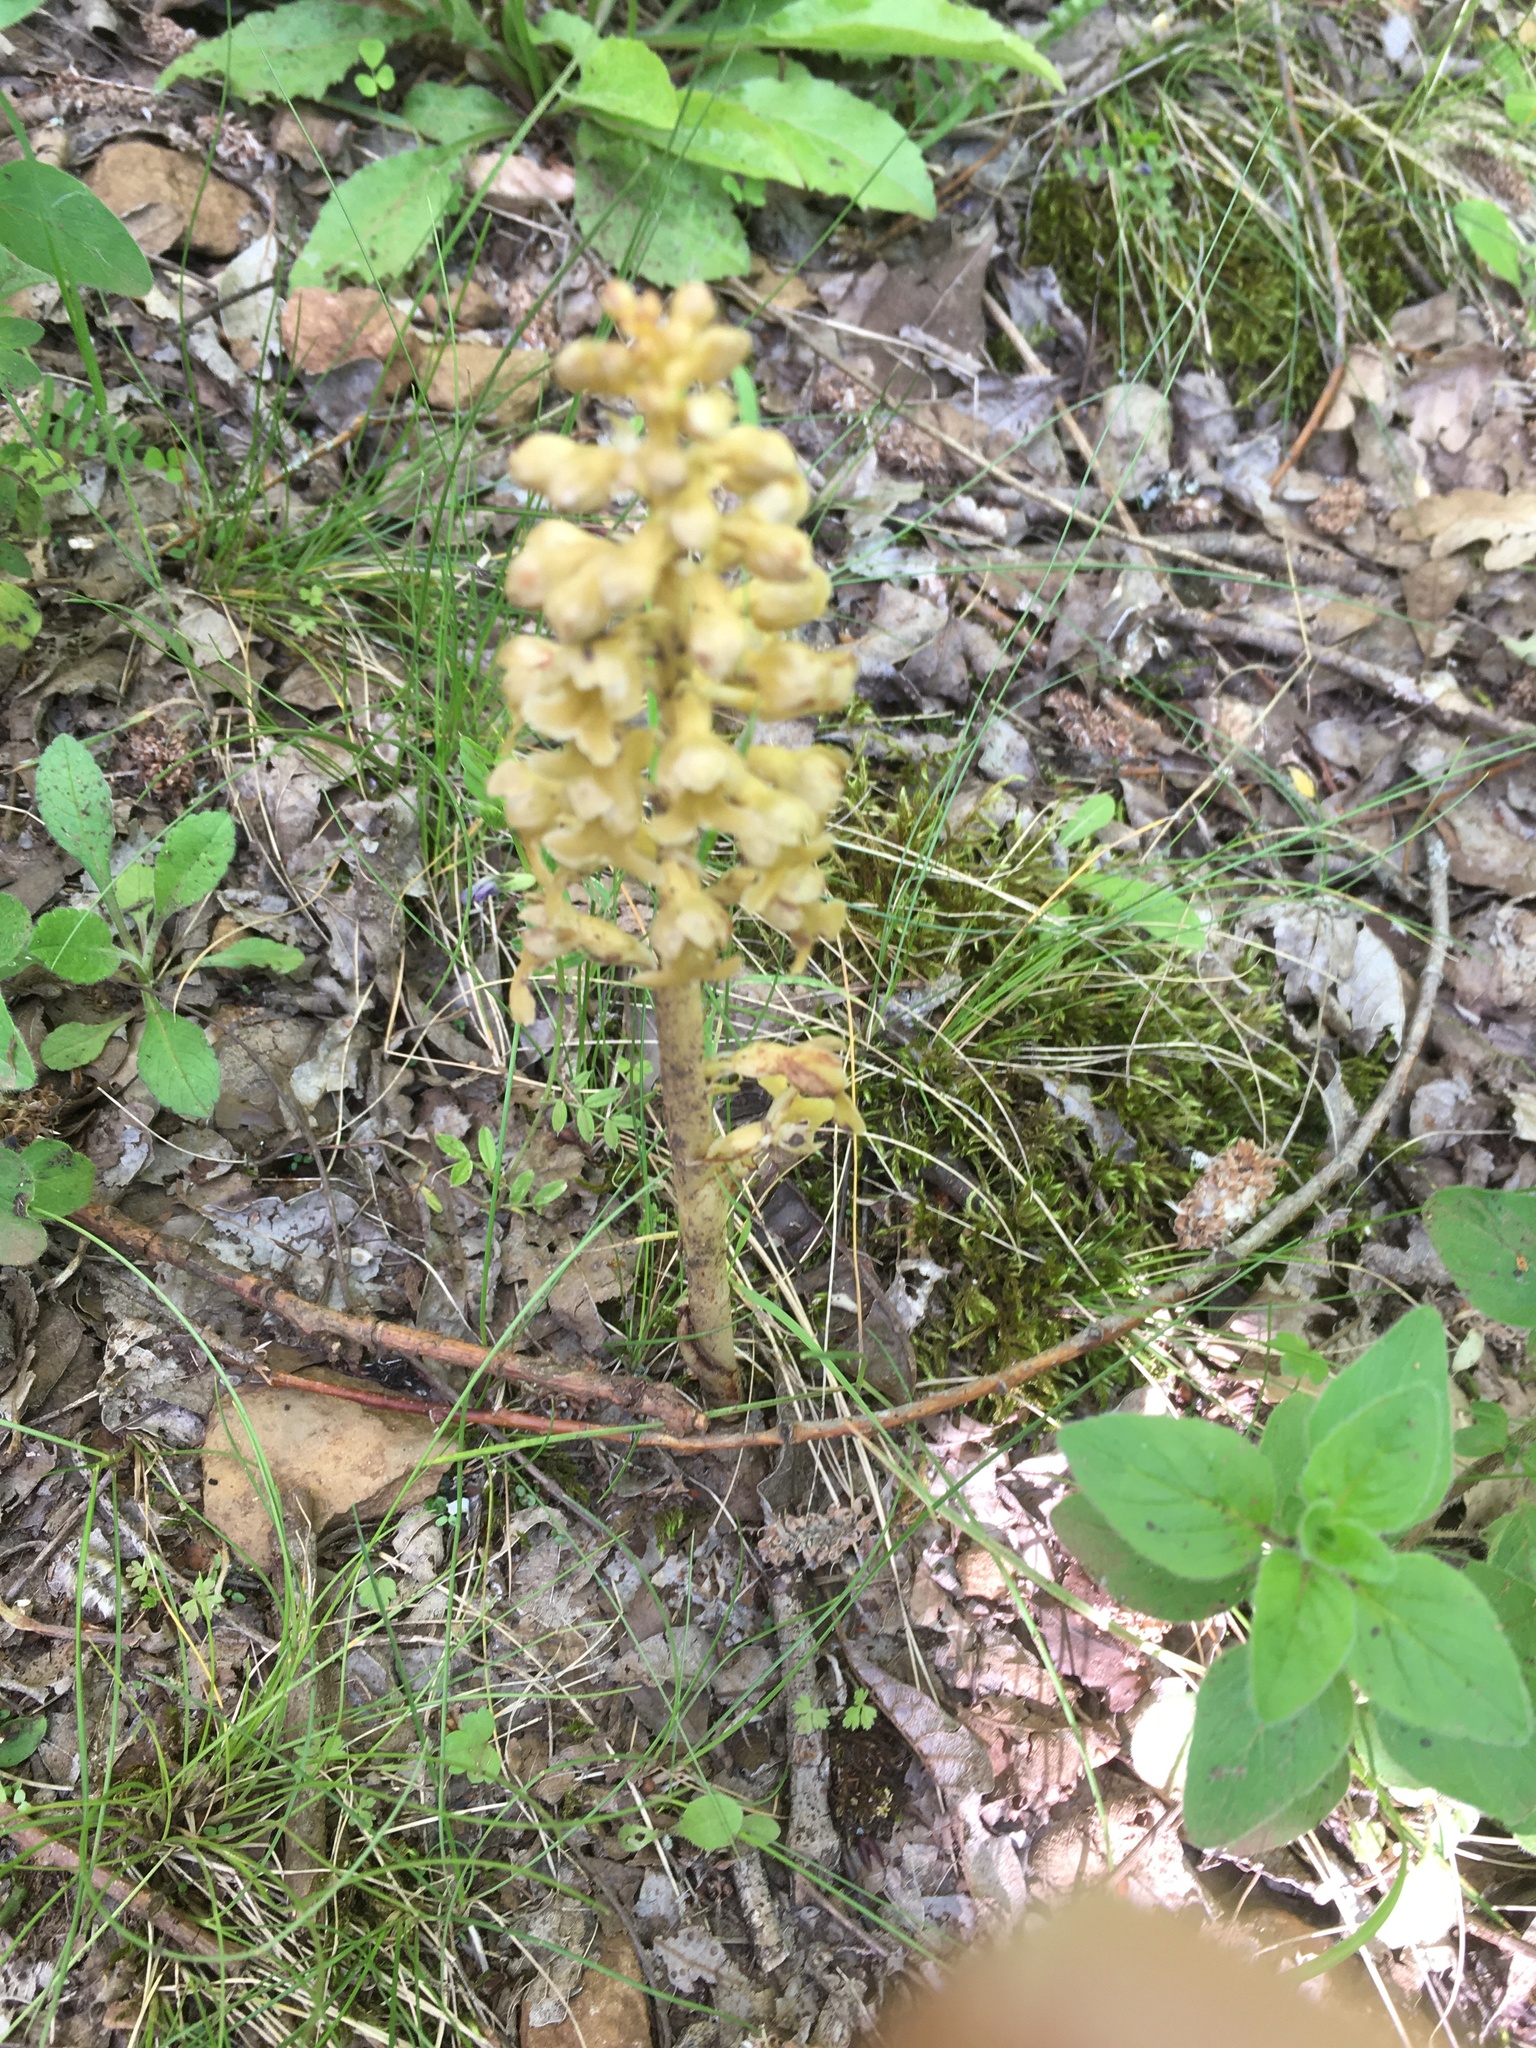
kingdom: Plantae
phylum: Tracheophyta
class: Liliopsida
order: Asparagales
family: Orchidaceae
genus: Neottia
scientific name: Neottia nidus-avis
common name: Bird's-nest orchid
